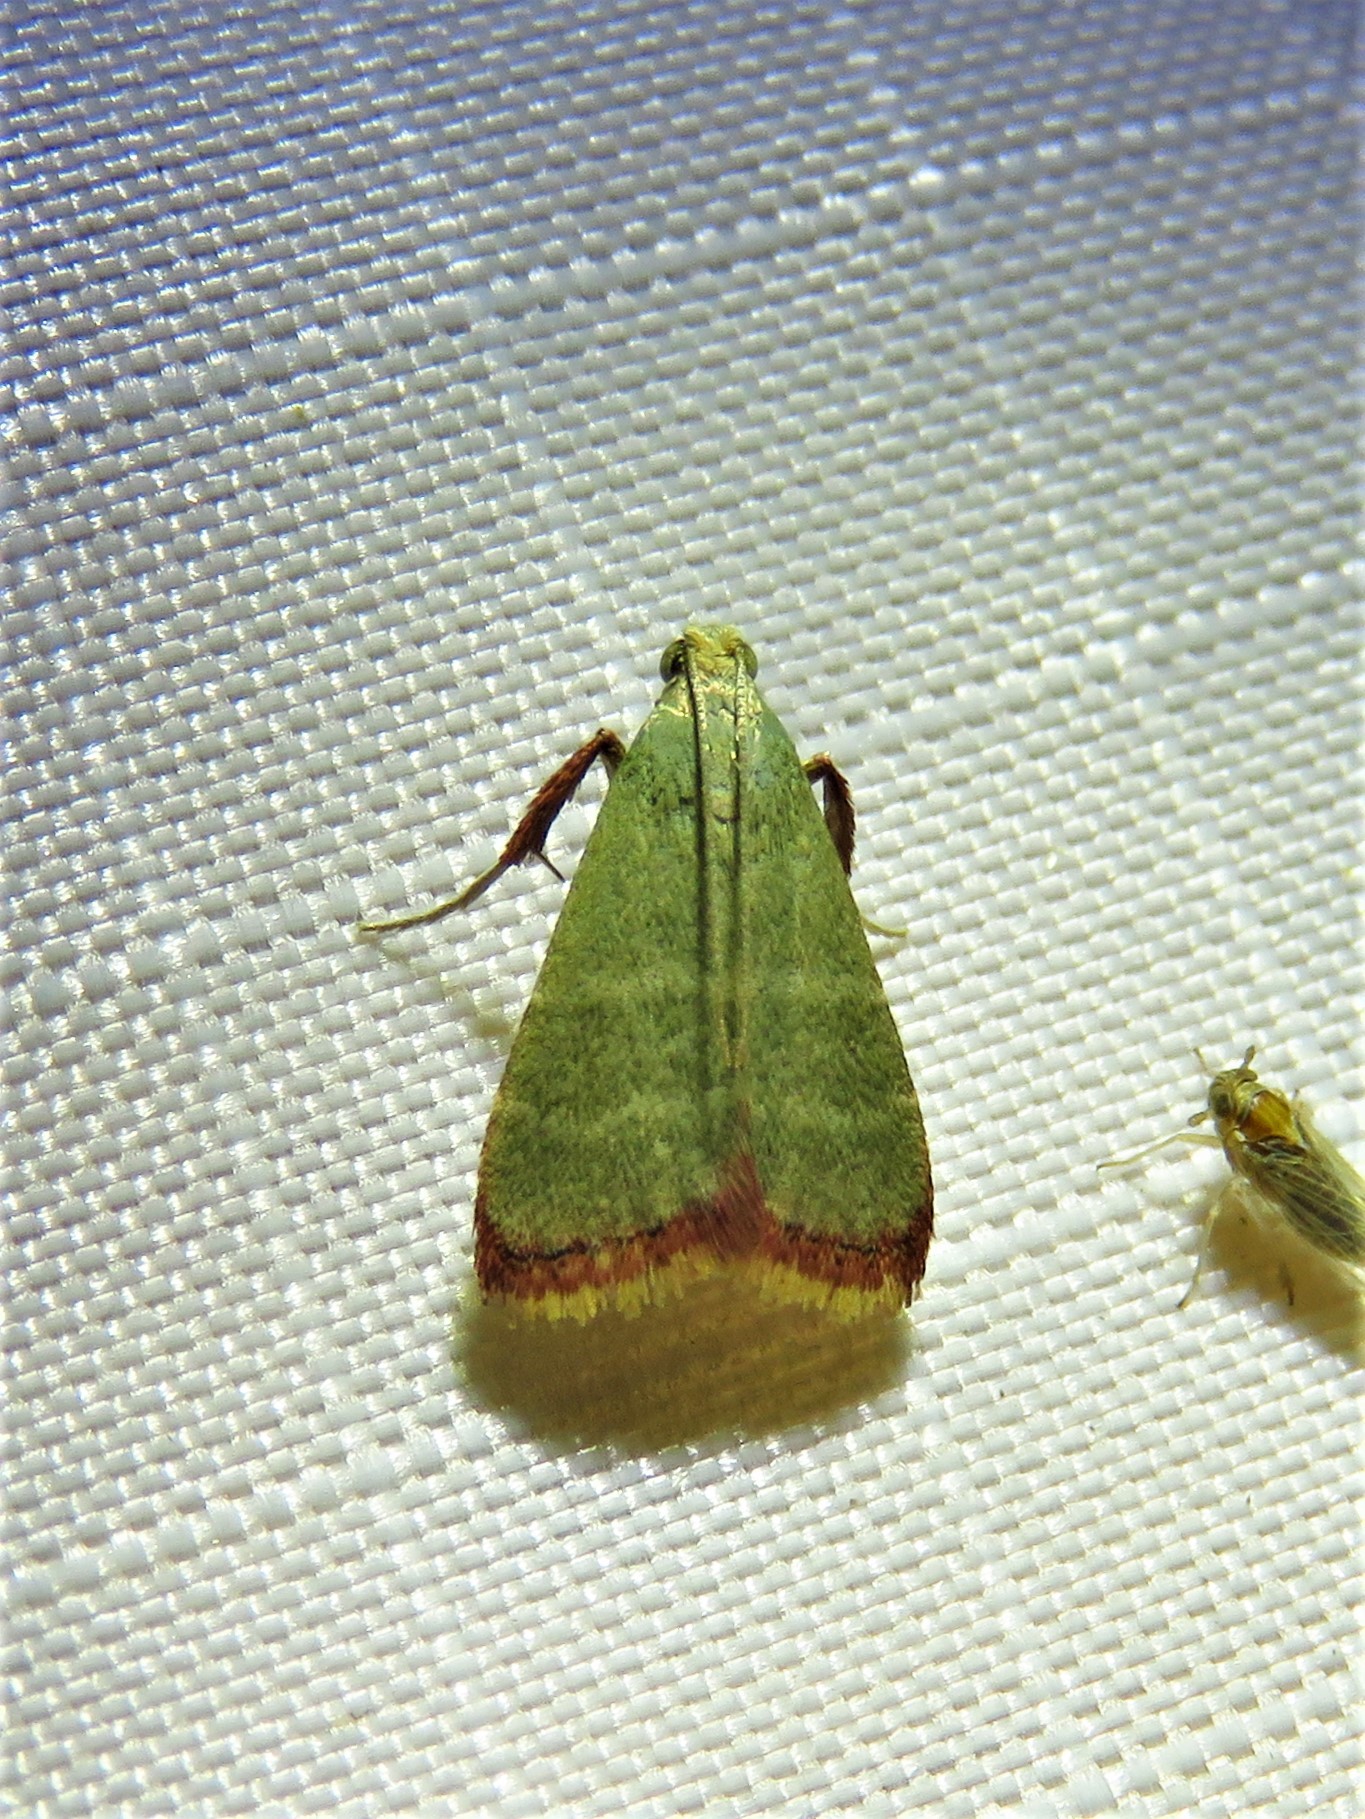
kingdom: Animalia
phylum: Arthropoda
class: Insecta
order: Lepidoptera
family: Pyralidae
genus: Arta
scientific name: Arta olivalis
